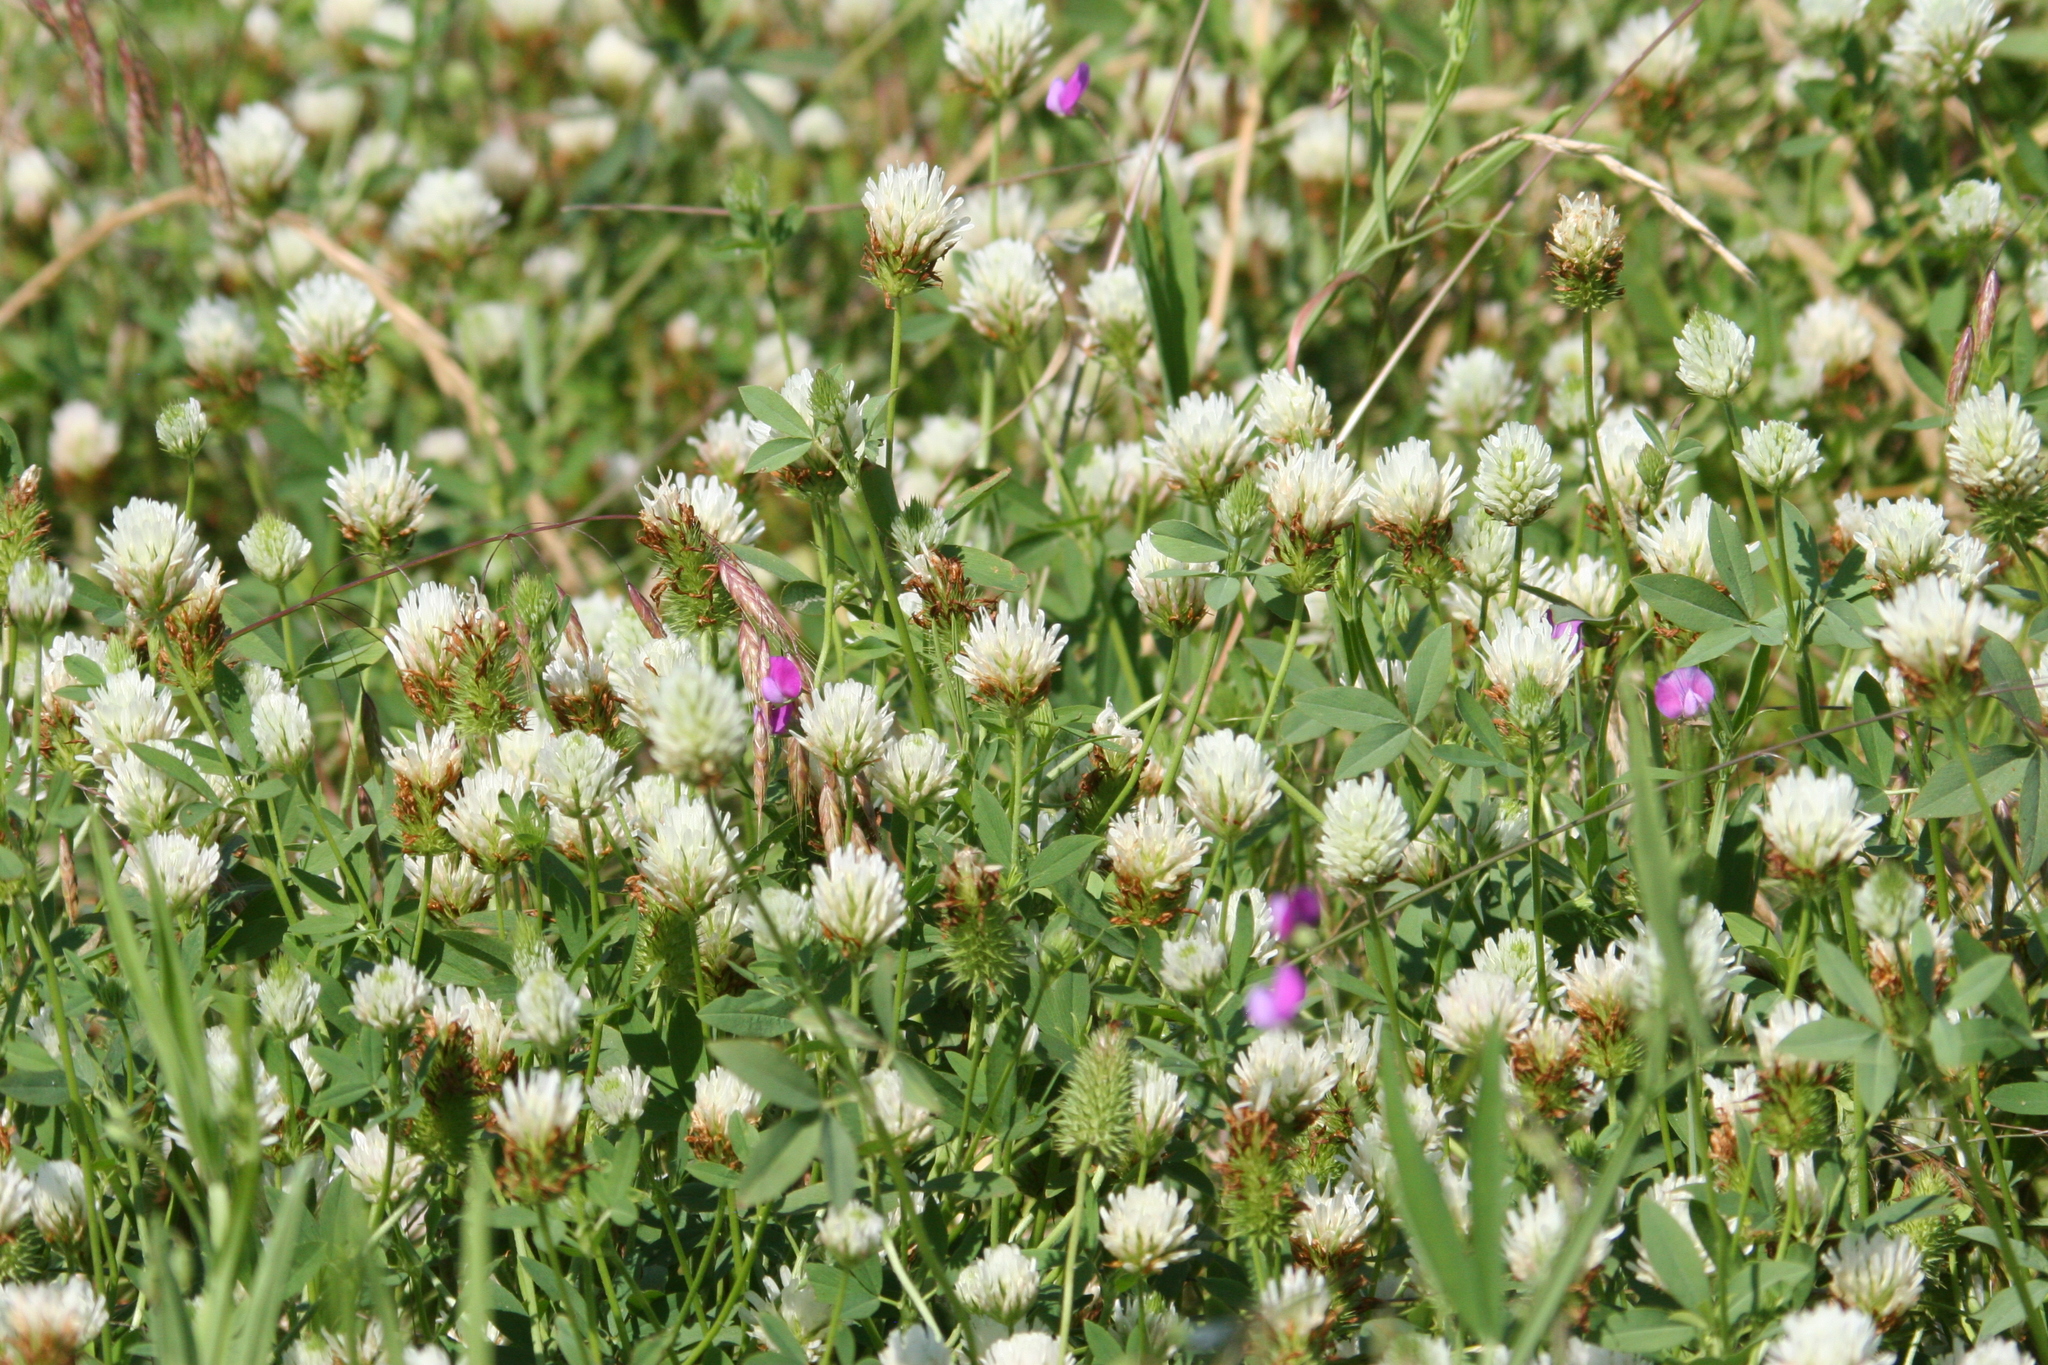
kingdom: Plantae
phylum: Tracheophyta
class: Magnoliopsida
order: Fabales
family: Fabaceae
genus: Trifolium
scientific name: Trifolium repens
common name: White clover
